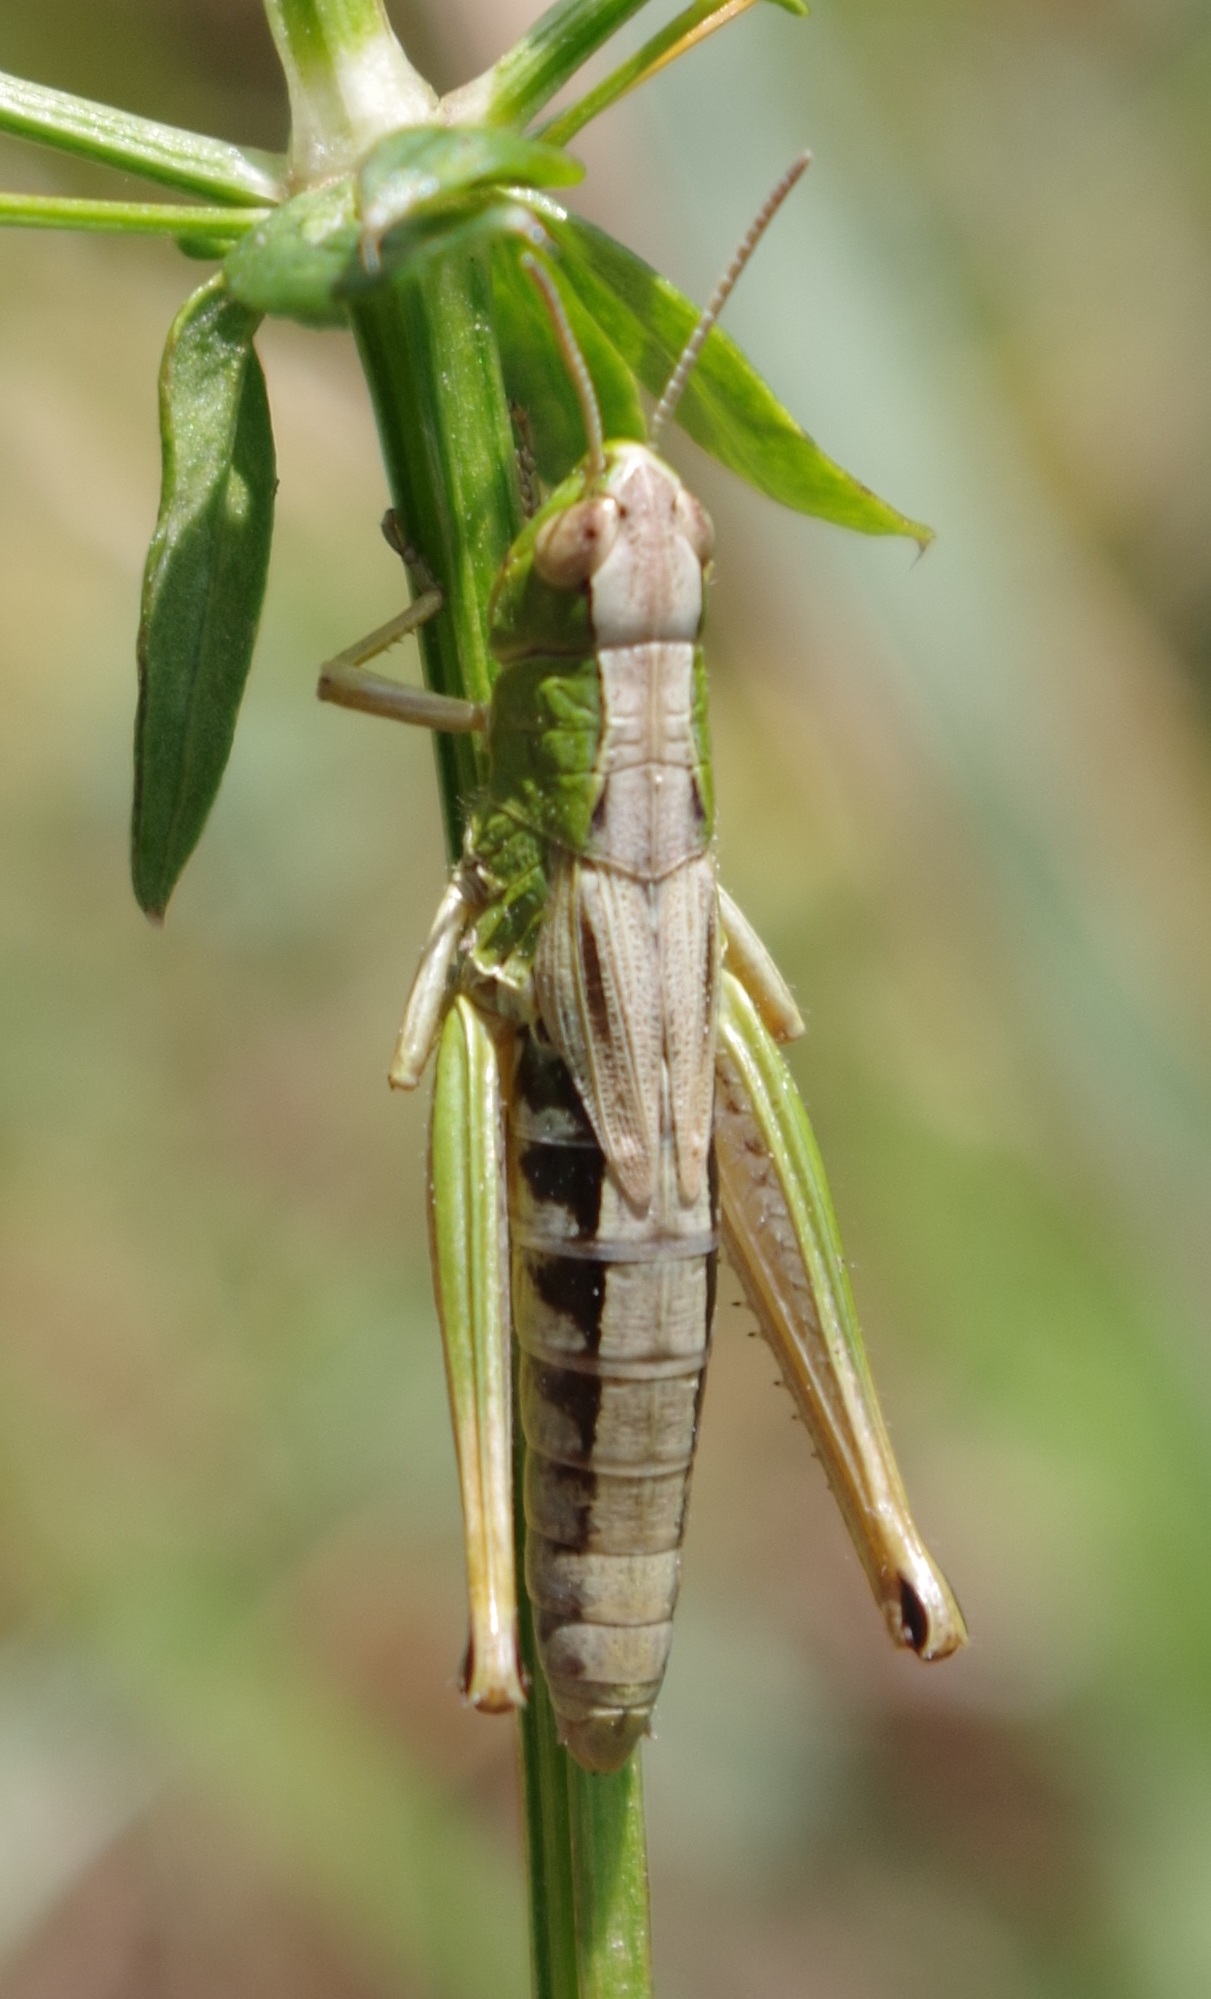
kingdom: Animalia
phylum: Arthropoda
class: Insecta
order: Orthoptera
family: Acrididae
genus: Pseudochorthippus
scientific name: Pseudochorthippus parallelus
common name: Meadow grasshopper
